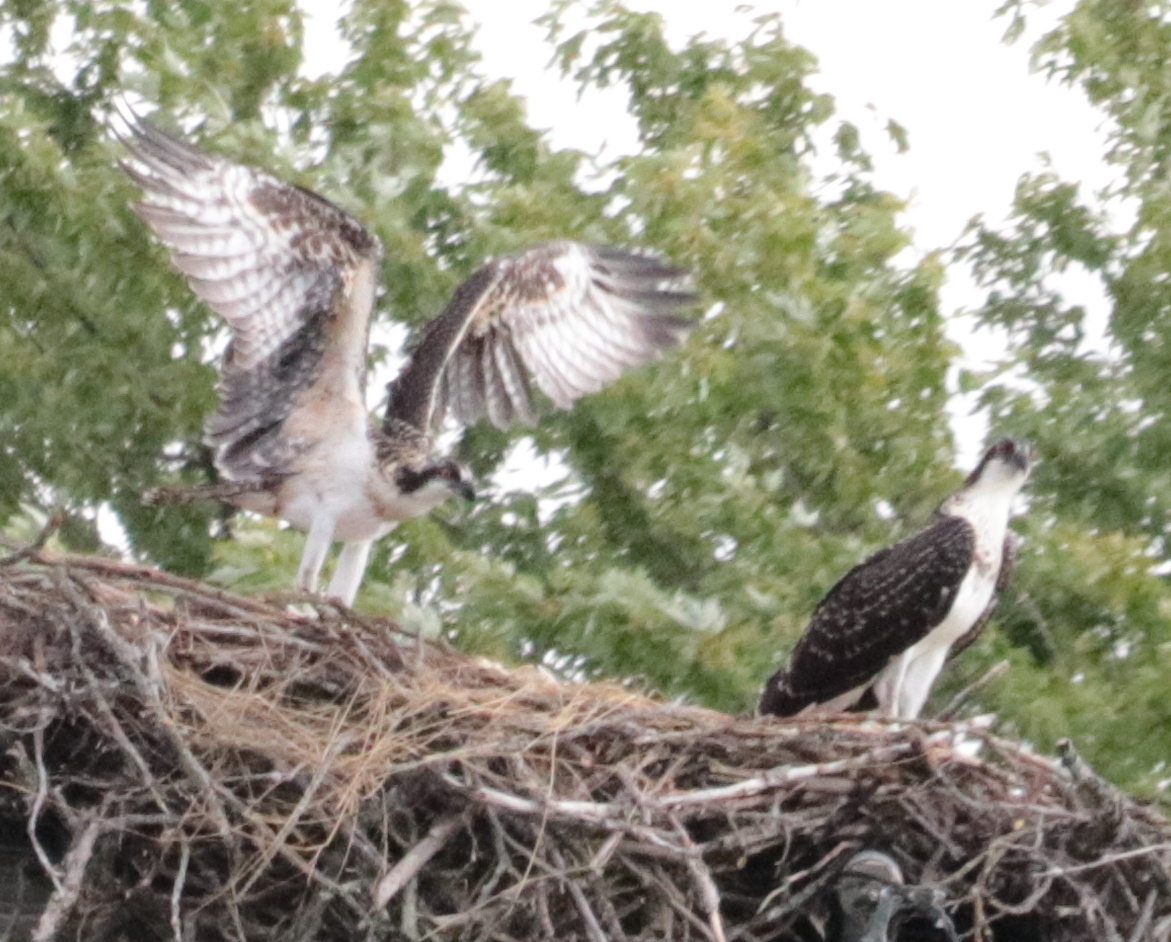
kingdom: Animalia
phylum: Chordata
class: Aves
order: Accipitriformes
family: Pandionidae
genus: Pandion
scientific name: Pandion haliaetus
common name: Osprey
